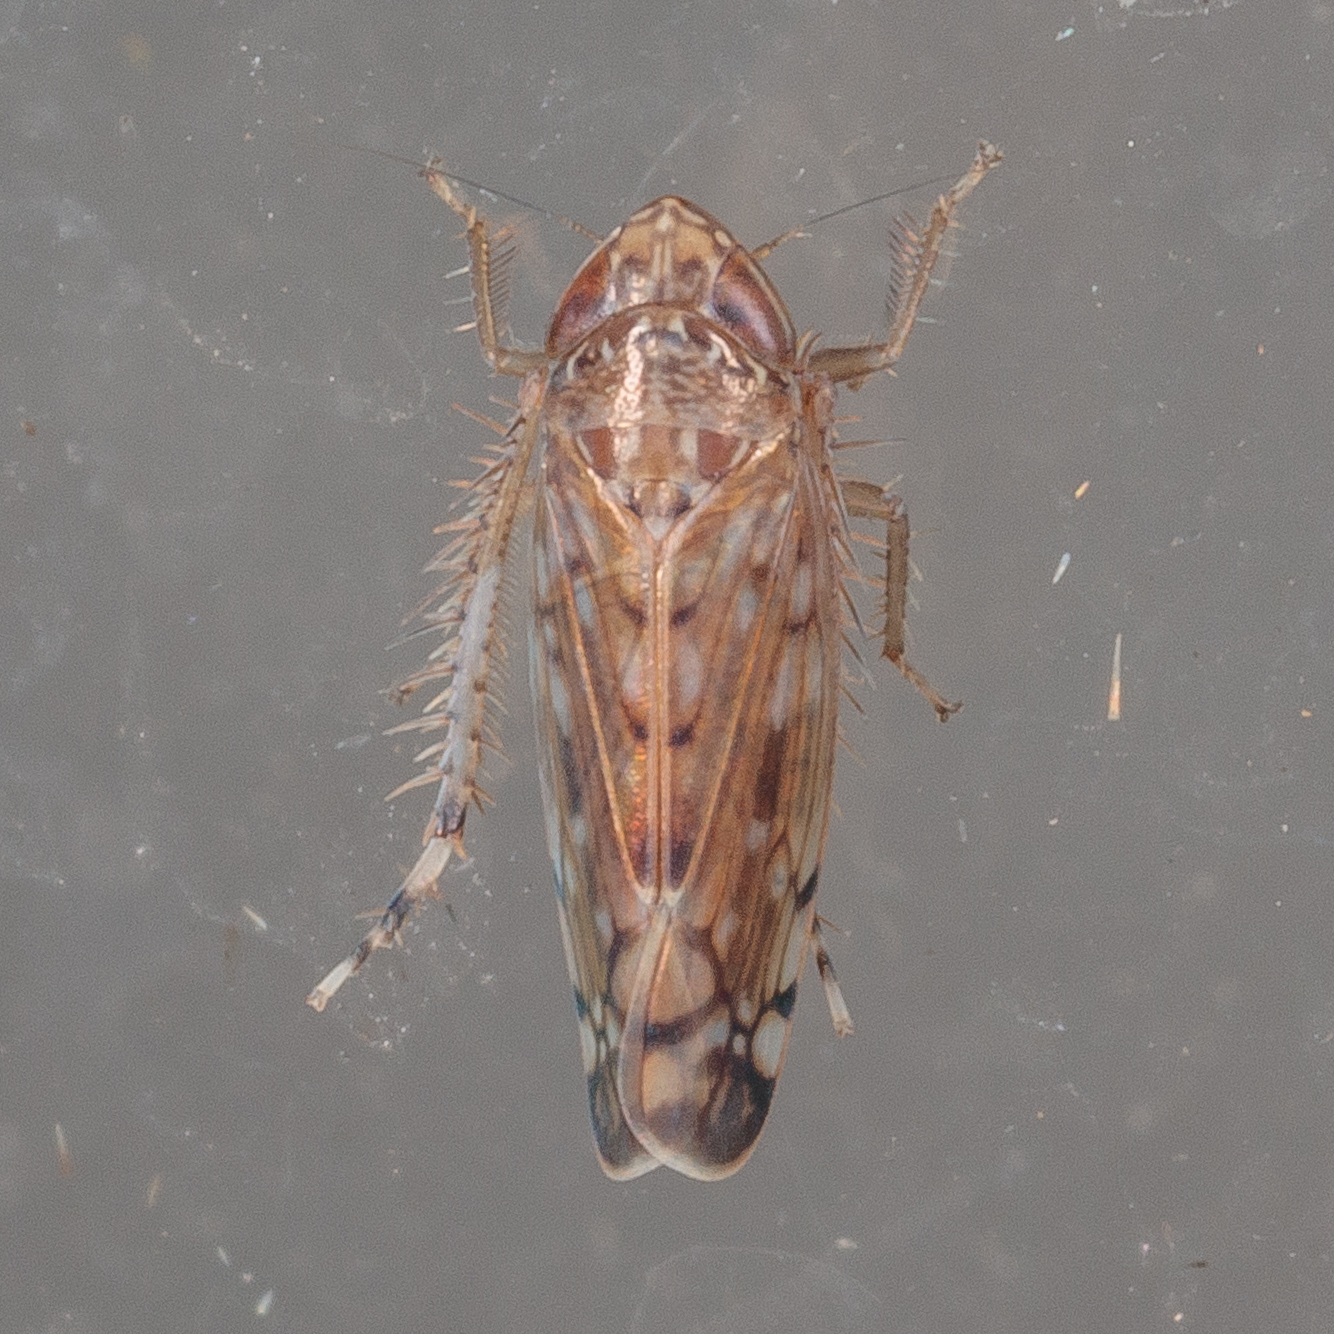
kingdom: Animalia
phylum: Arthropoda
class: Insecta
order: Hemiptera
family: Cicadellidae
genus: Osbornellus
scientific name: Osbornellus filamenta
